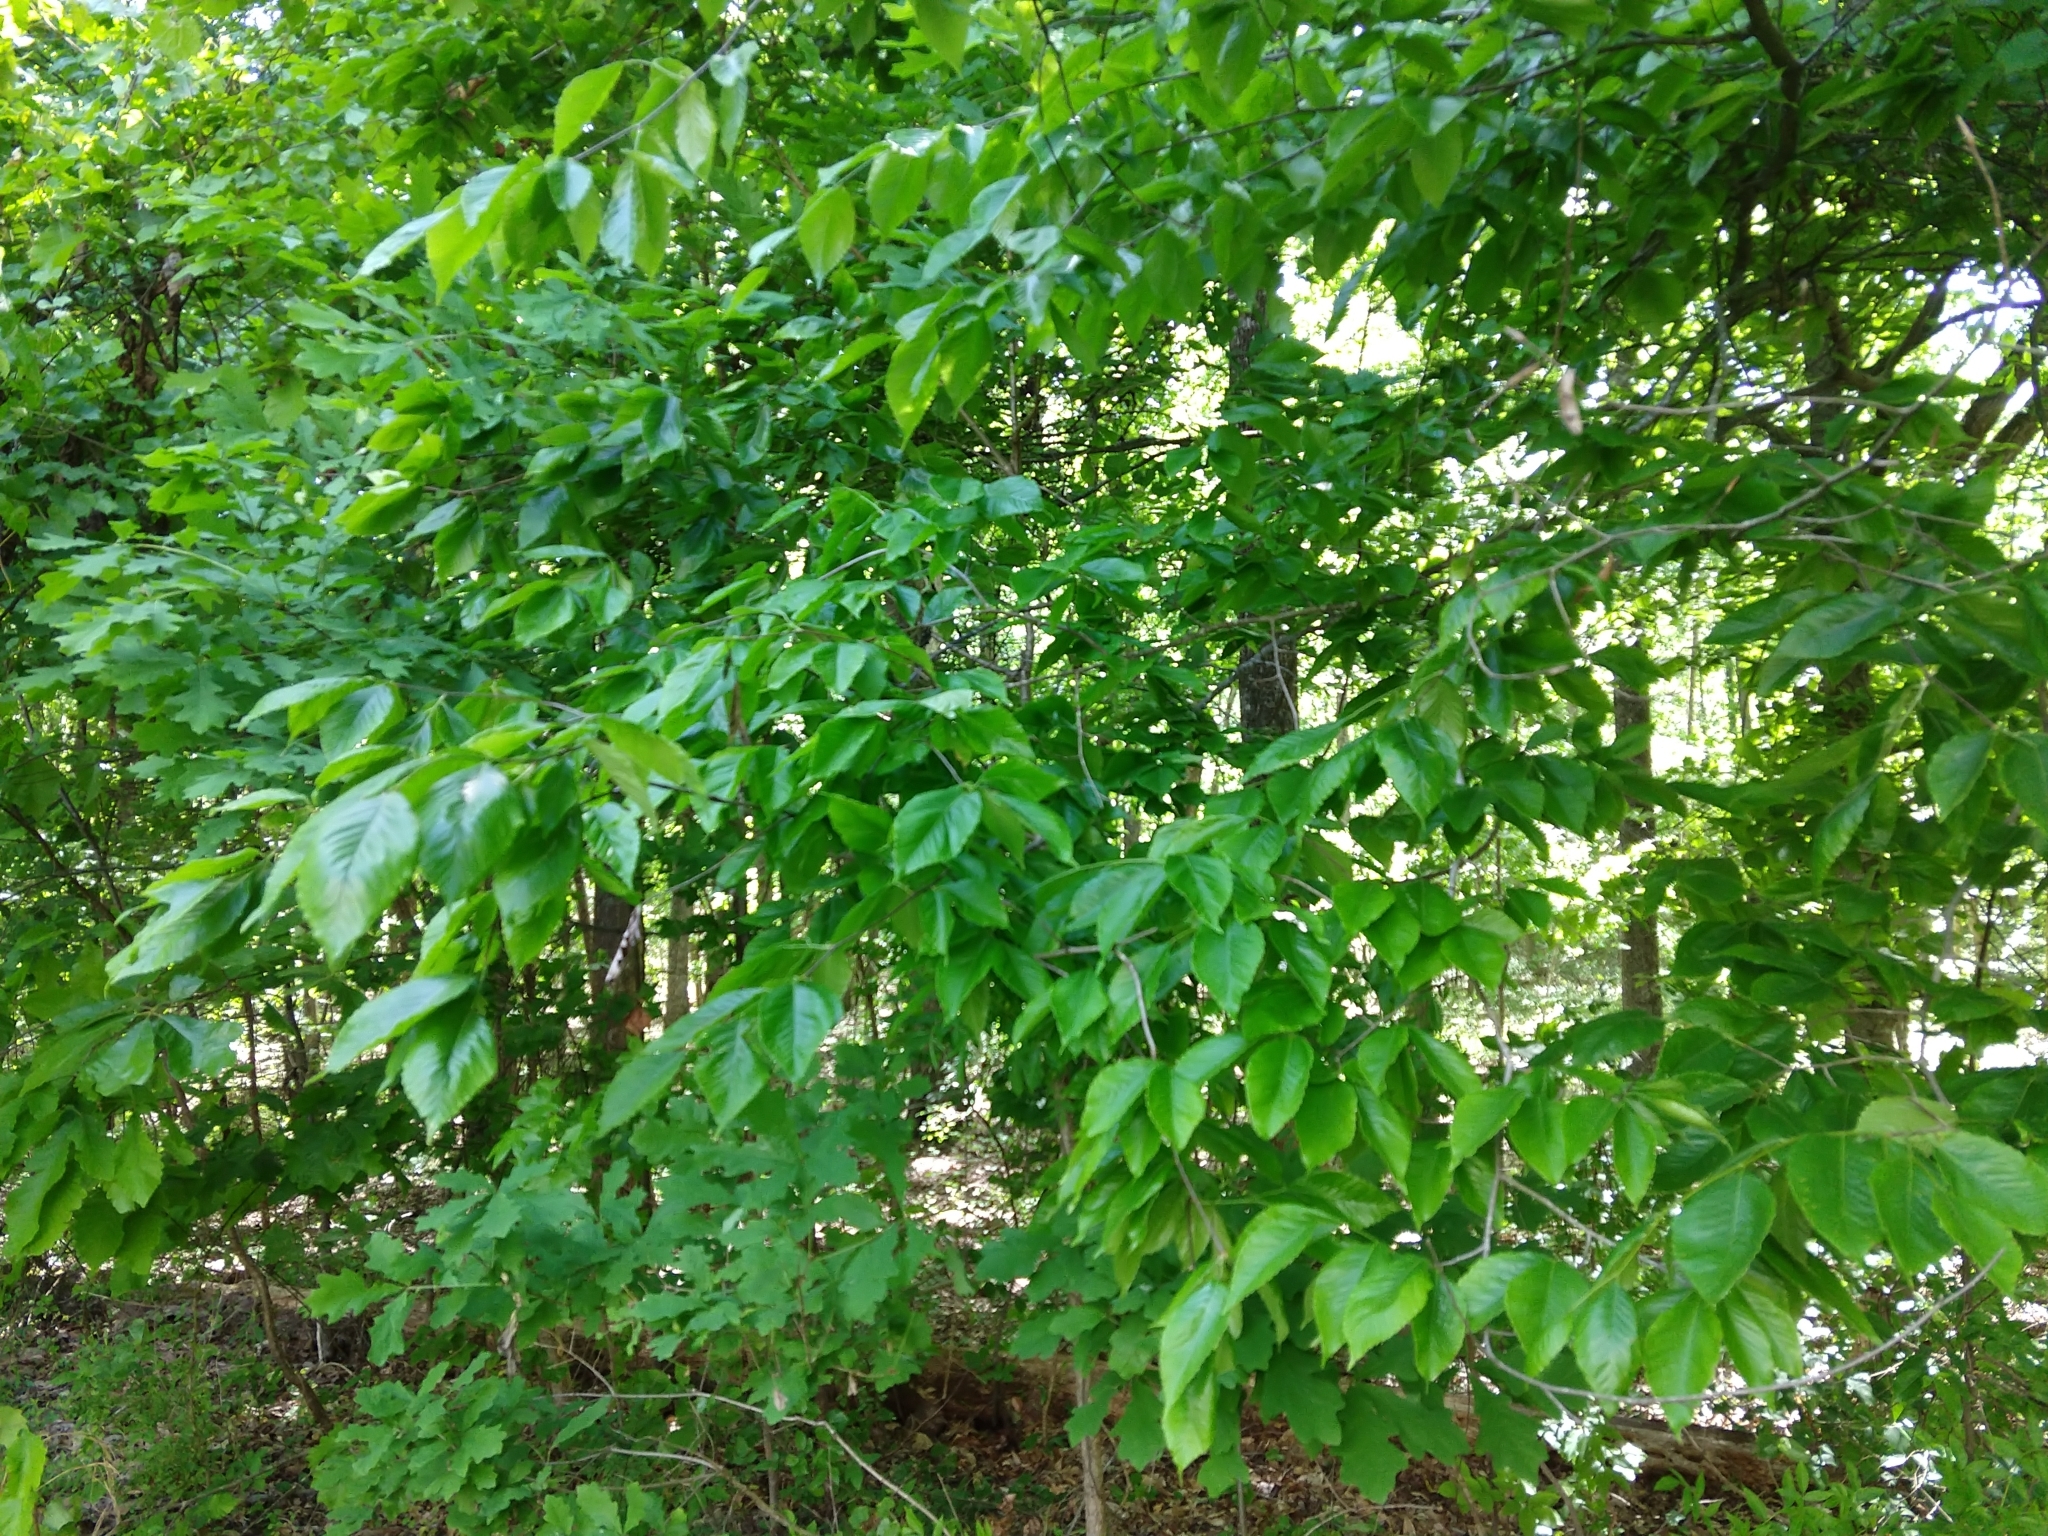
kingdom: Plantae
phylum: Tracheophyta
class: Magnoliopsida
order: Fagales
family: Fagaceae
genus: Fagus
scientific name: Fagus grandifolia
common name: American beech
